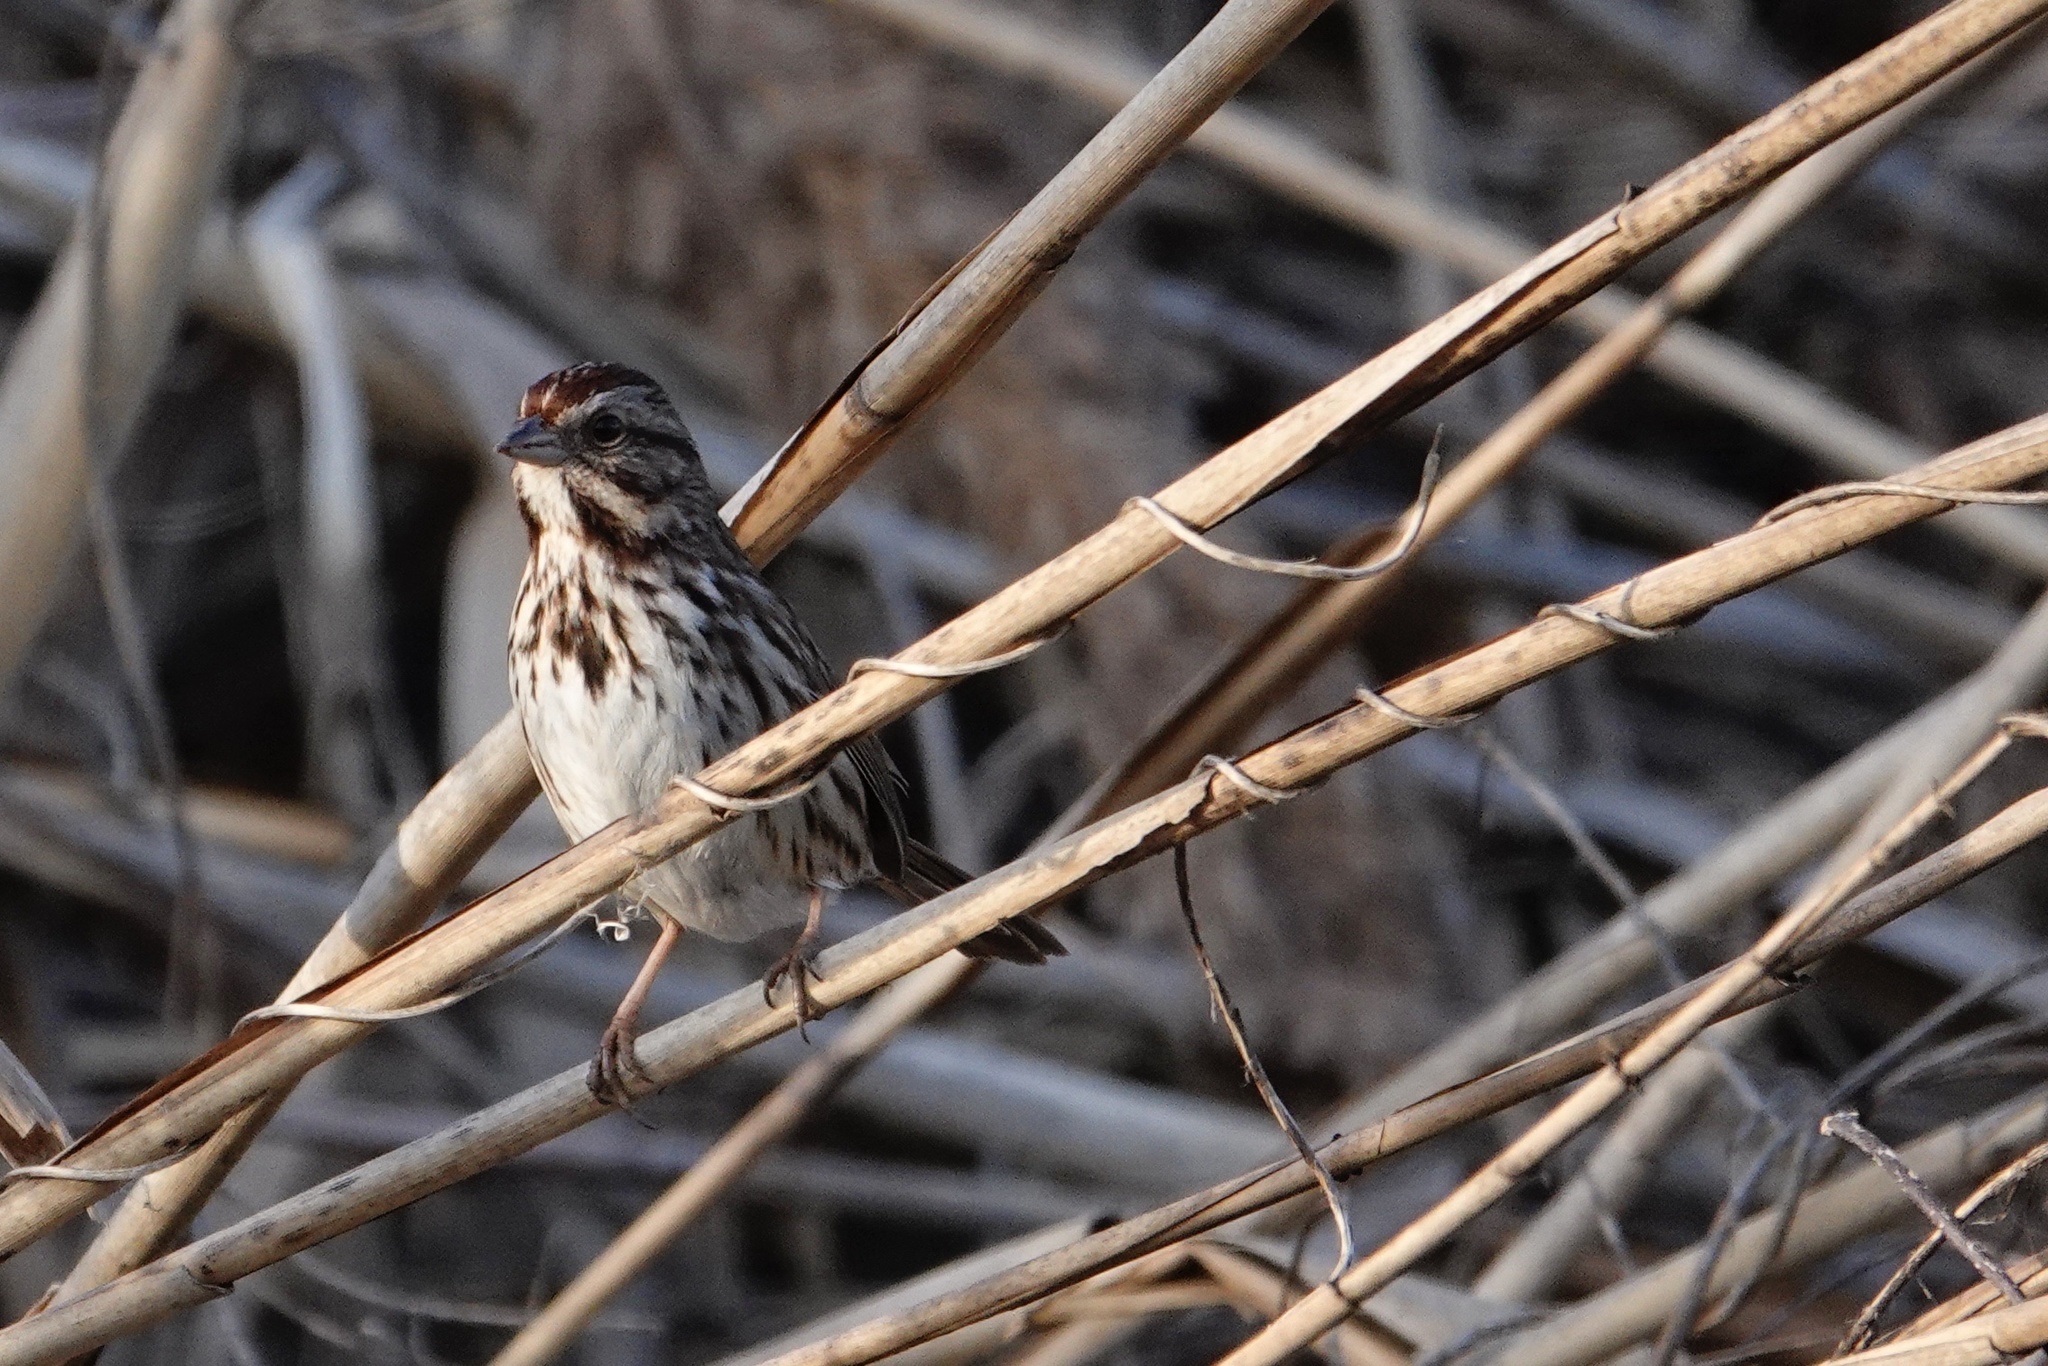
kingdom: Animalia
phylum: Chordata
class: Aves
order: Passeriformes
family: Passerellidae
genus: Melospiza
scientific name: Melospiza melodia
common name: Song sparrow
